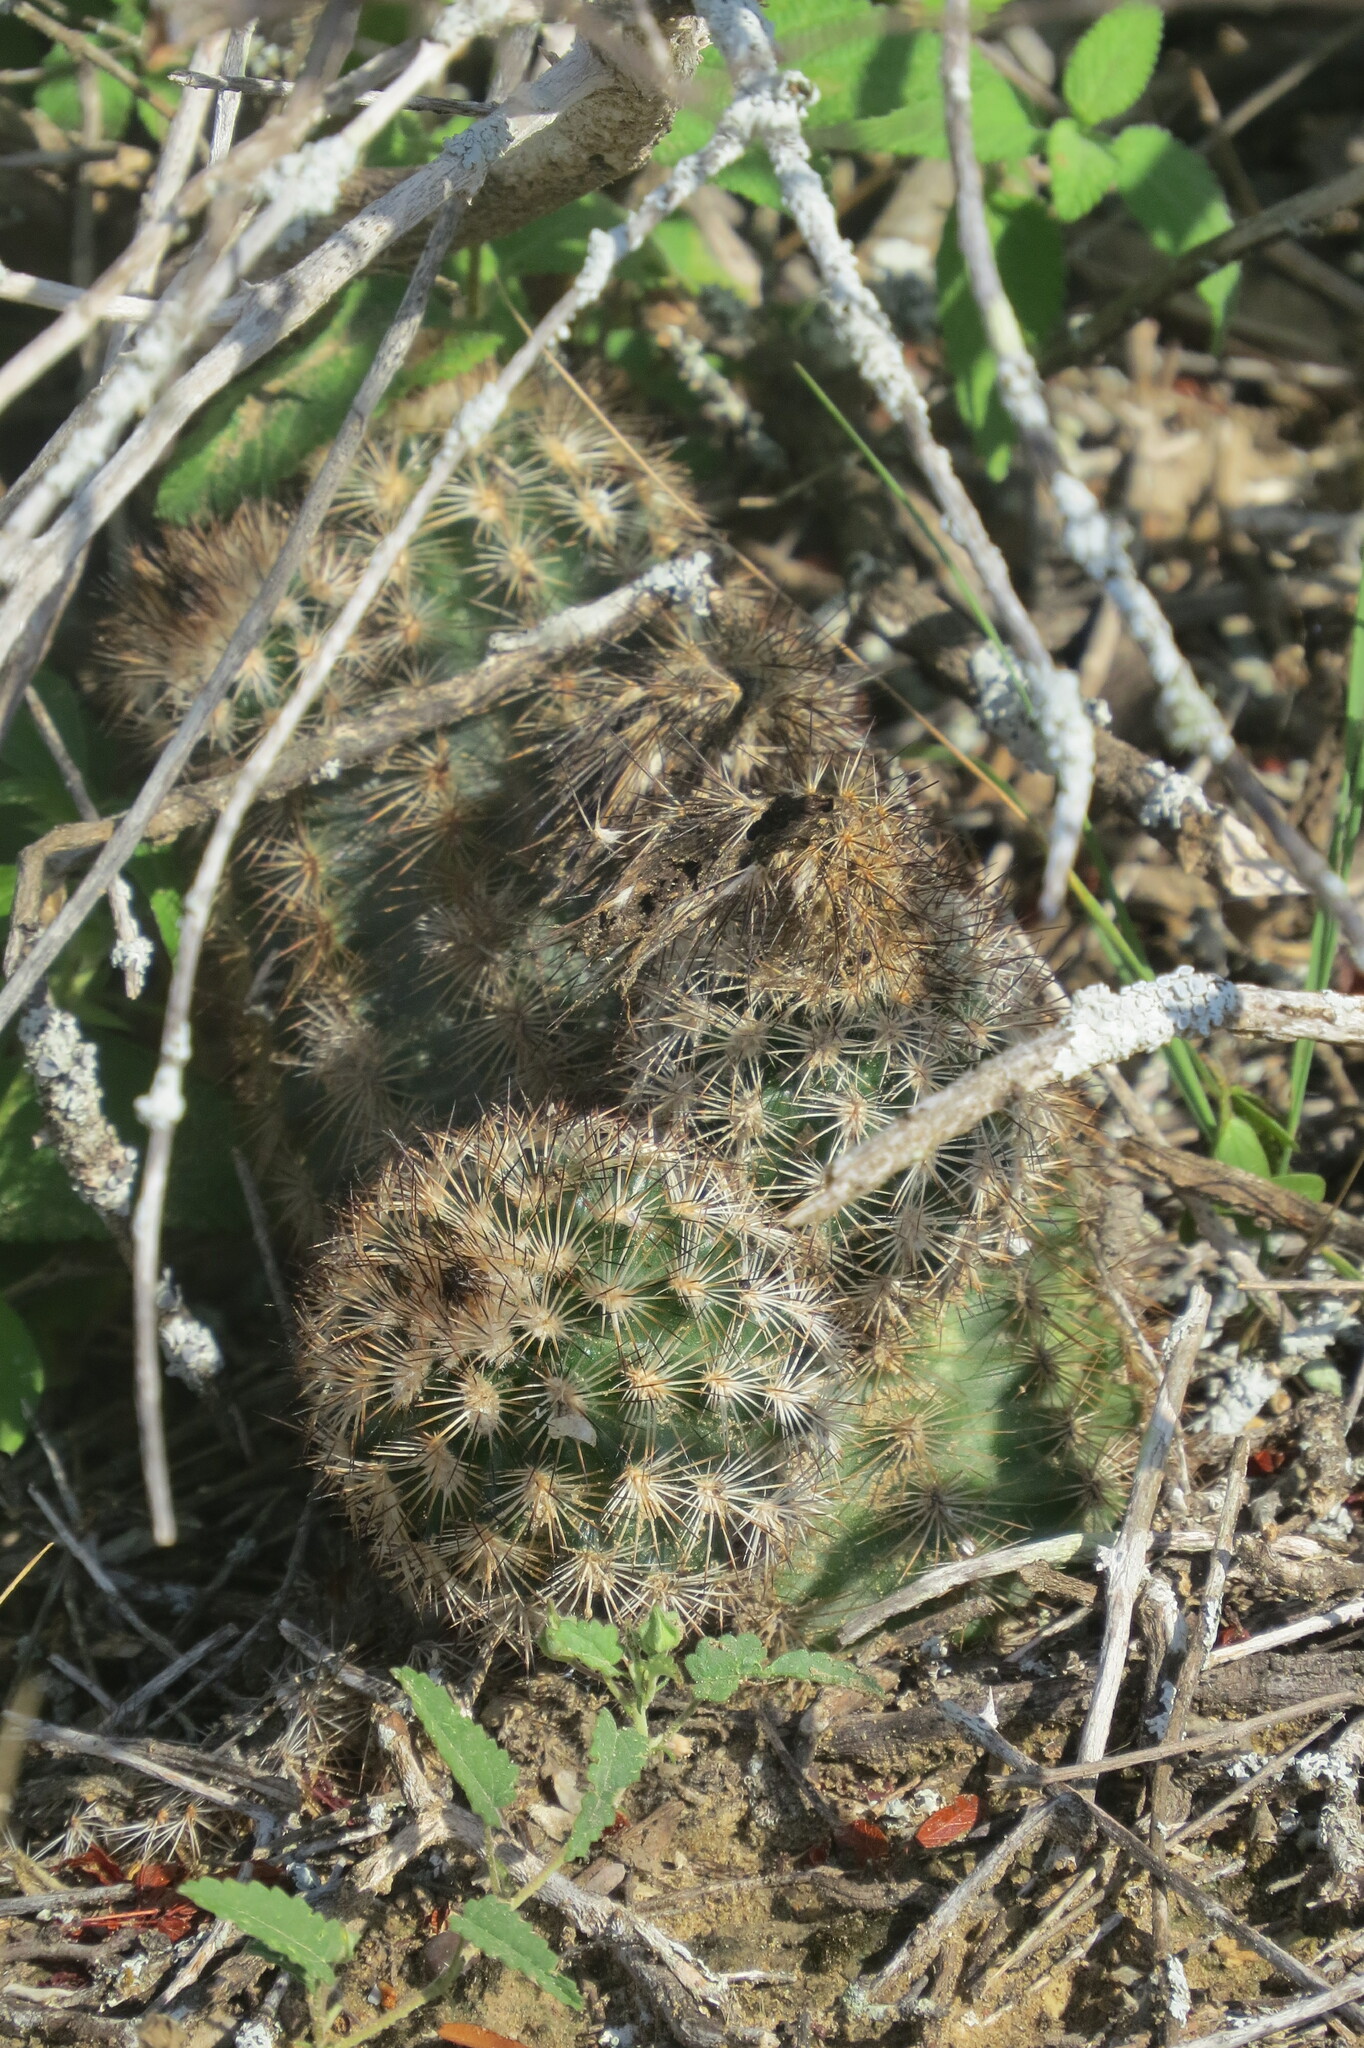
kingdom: Plantae
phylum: Tracheophyta
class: Magnoliopsida
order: Caryophyllales
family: Cactaceae
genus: Echinocereus
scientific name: Echinocereus reichenbachii
